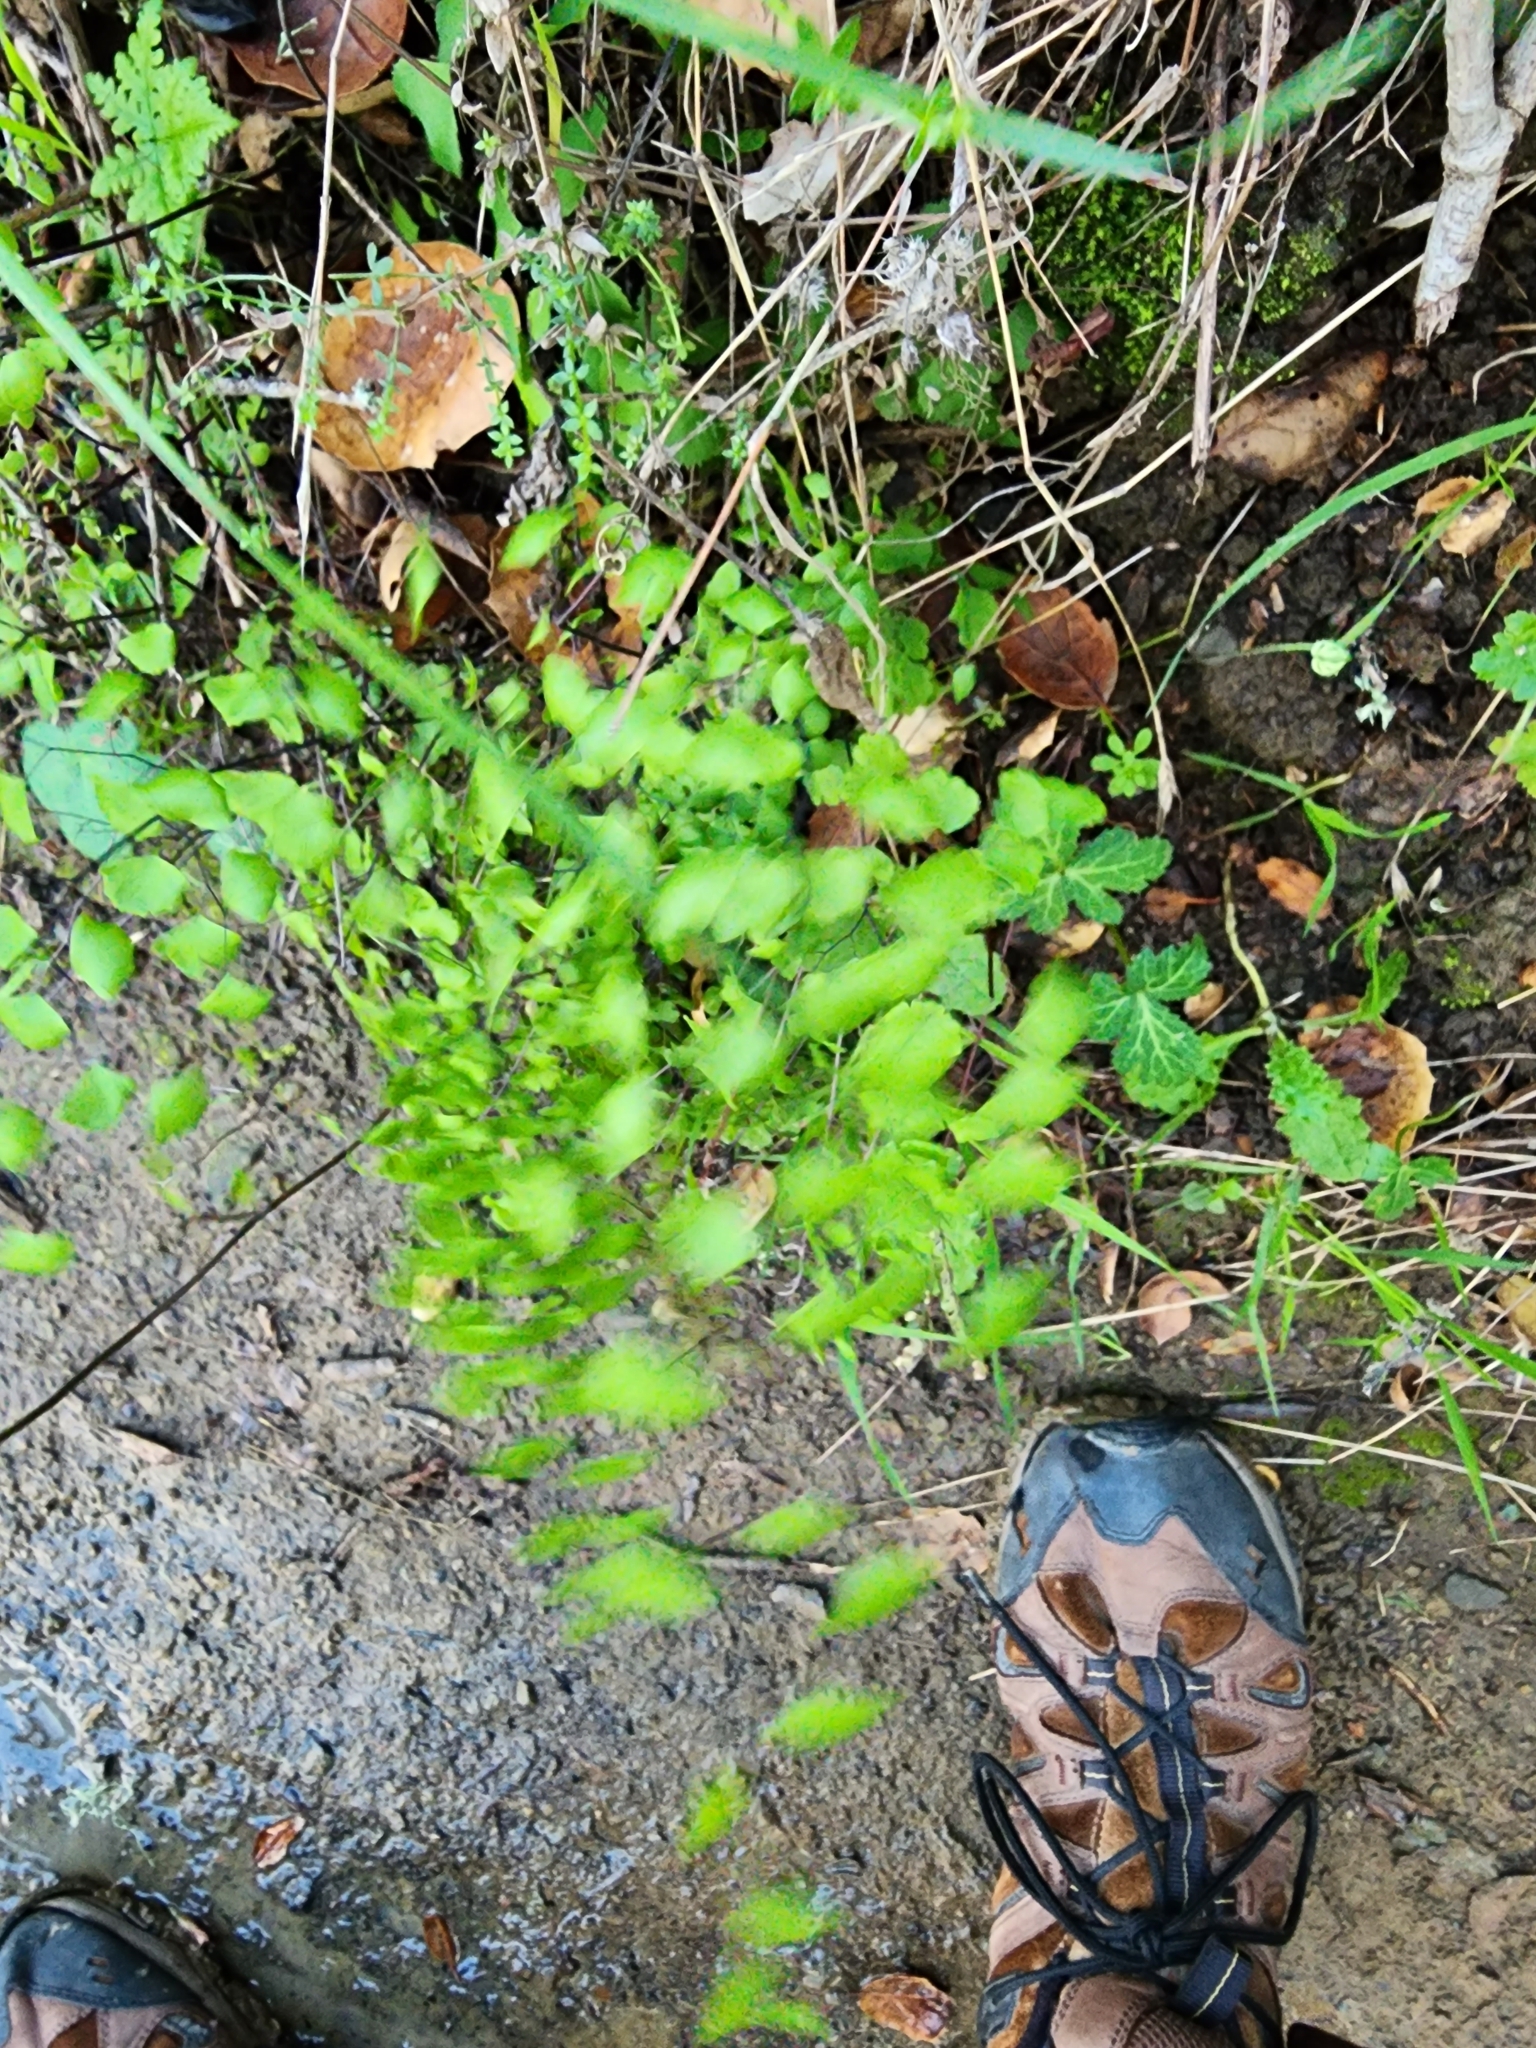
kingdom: Plantae
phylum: Tracheophyta
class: Polypodiopsida
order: Polypodiales
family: Pteridaceae
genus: Adiantum
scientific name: Adiantum jordanii
